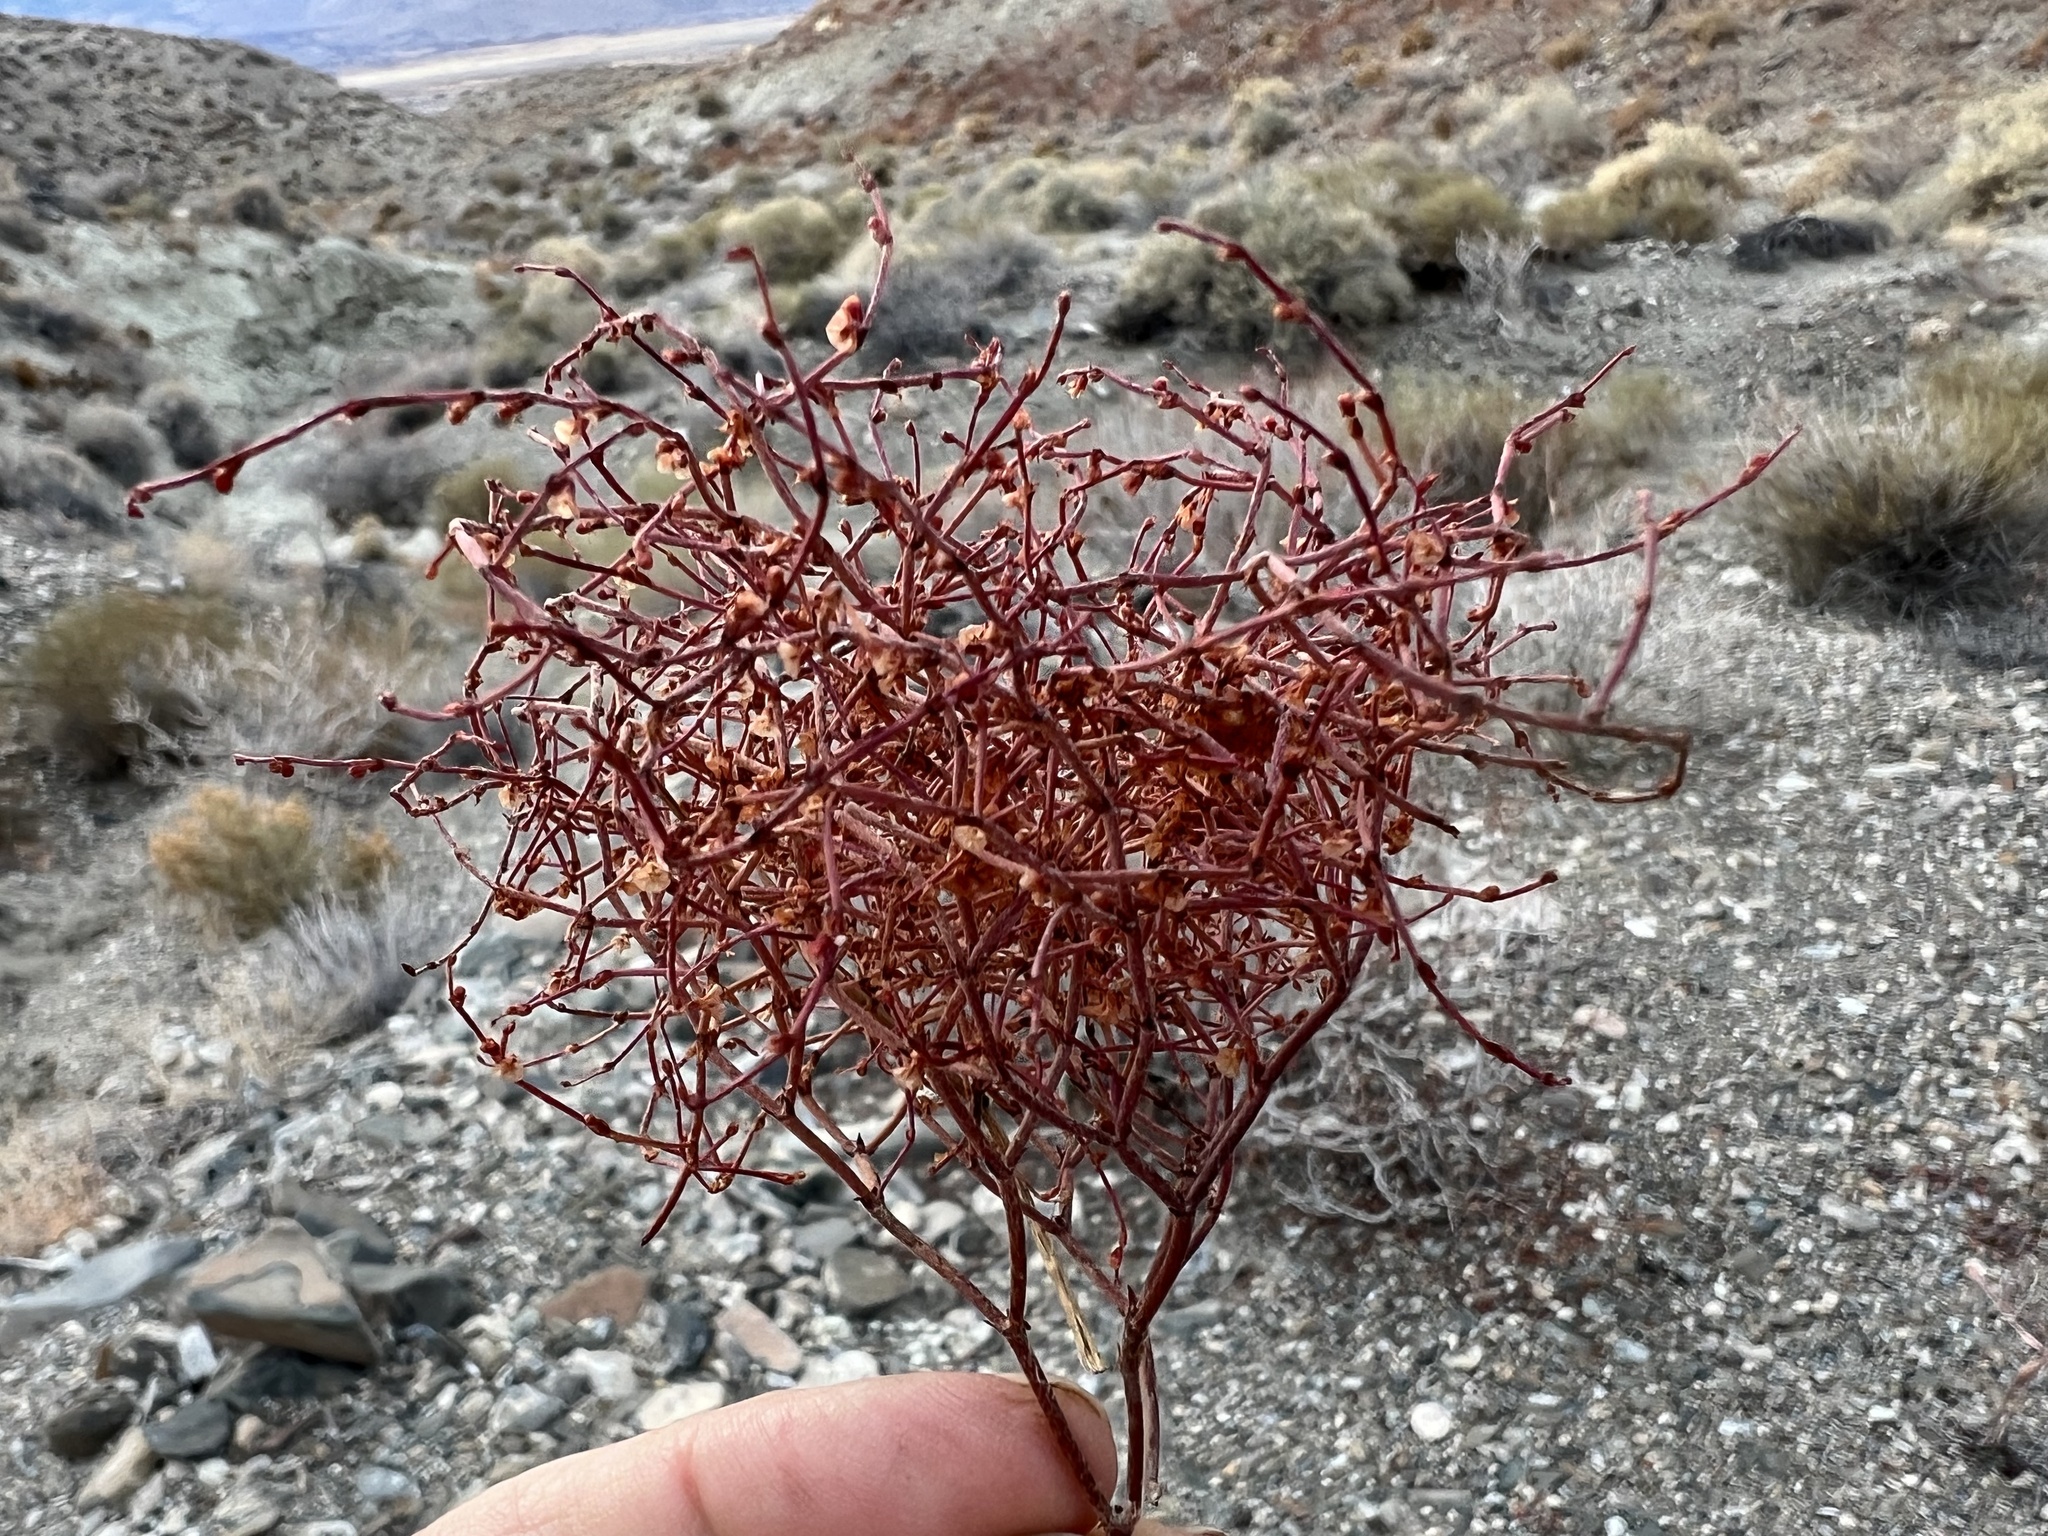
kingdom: Plantae
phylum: Tracheophyta
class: Magnoliopsida
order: Caryophyllales
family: Polygonaceae
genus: Eriogonum
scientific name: Eriogonum nidularium
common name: Bird's-nest wild buckwheat
